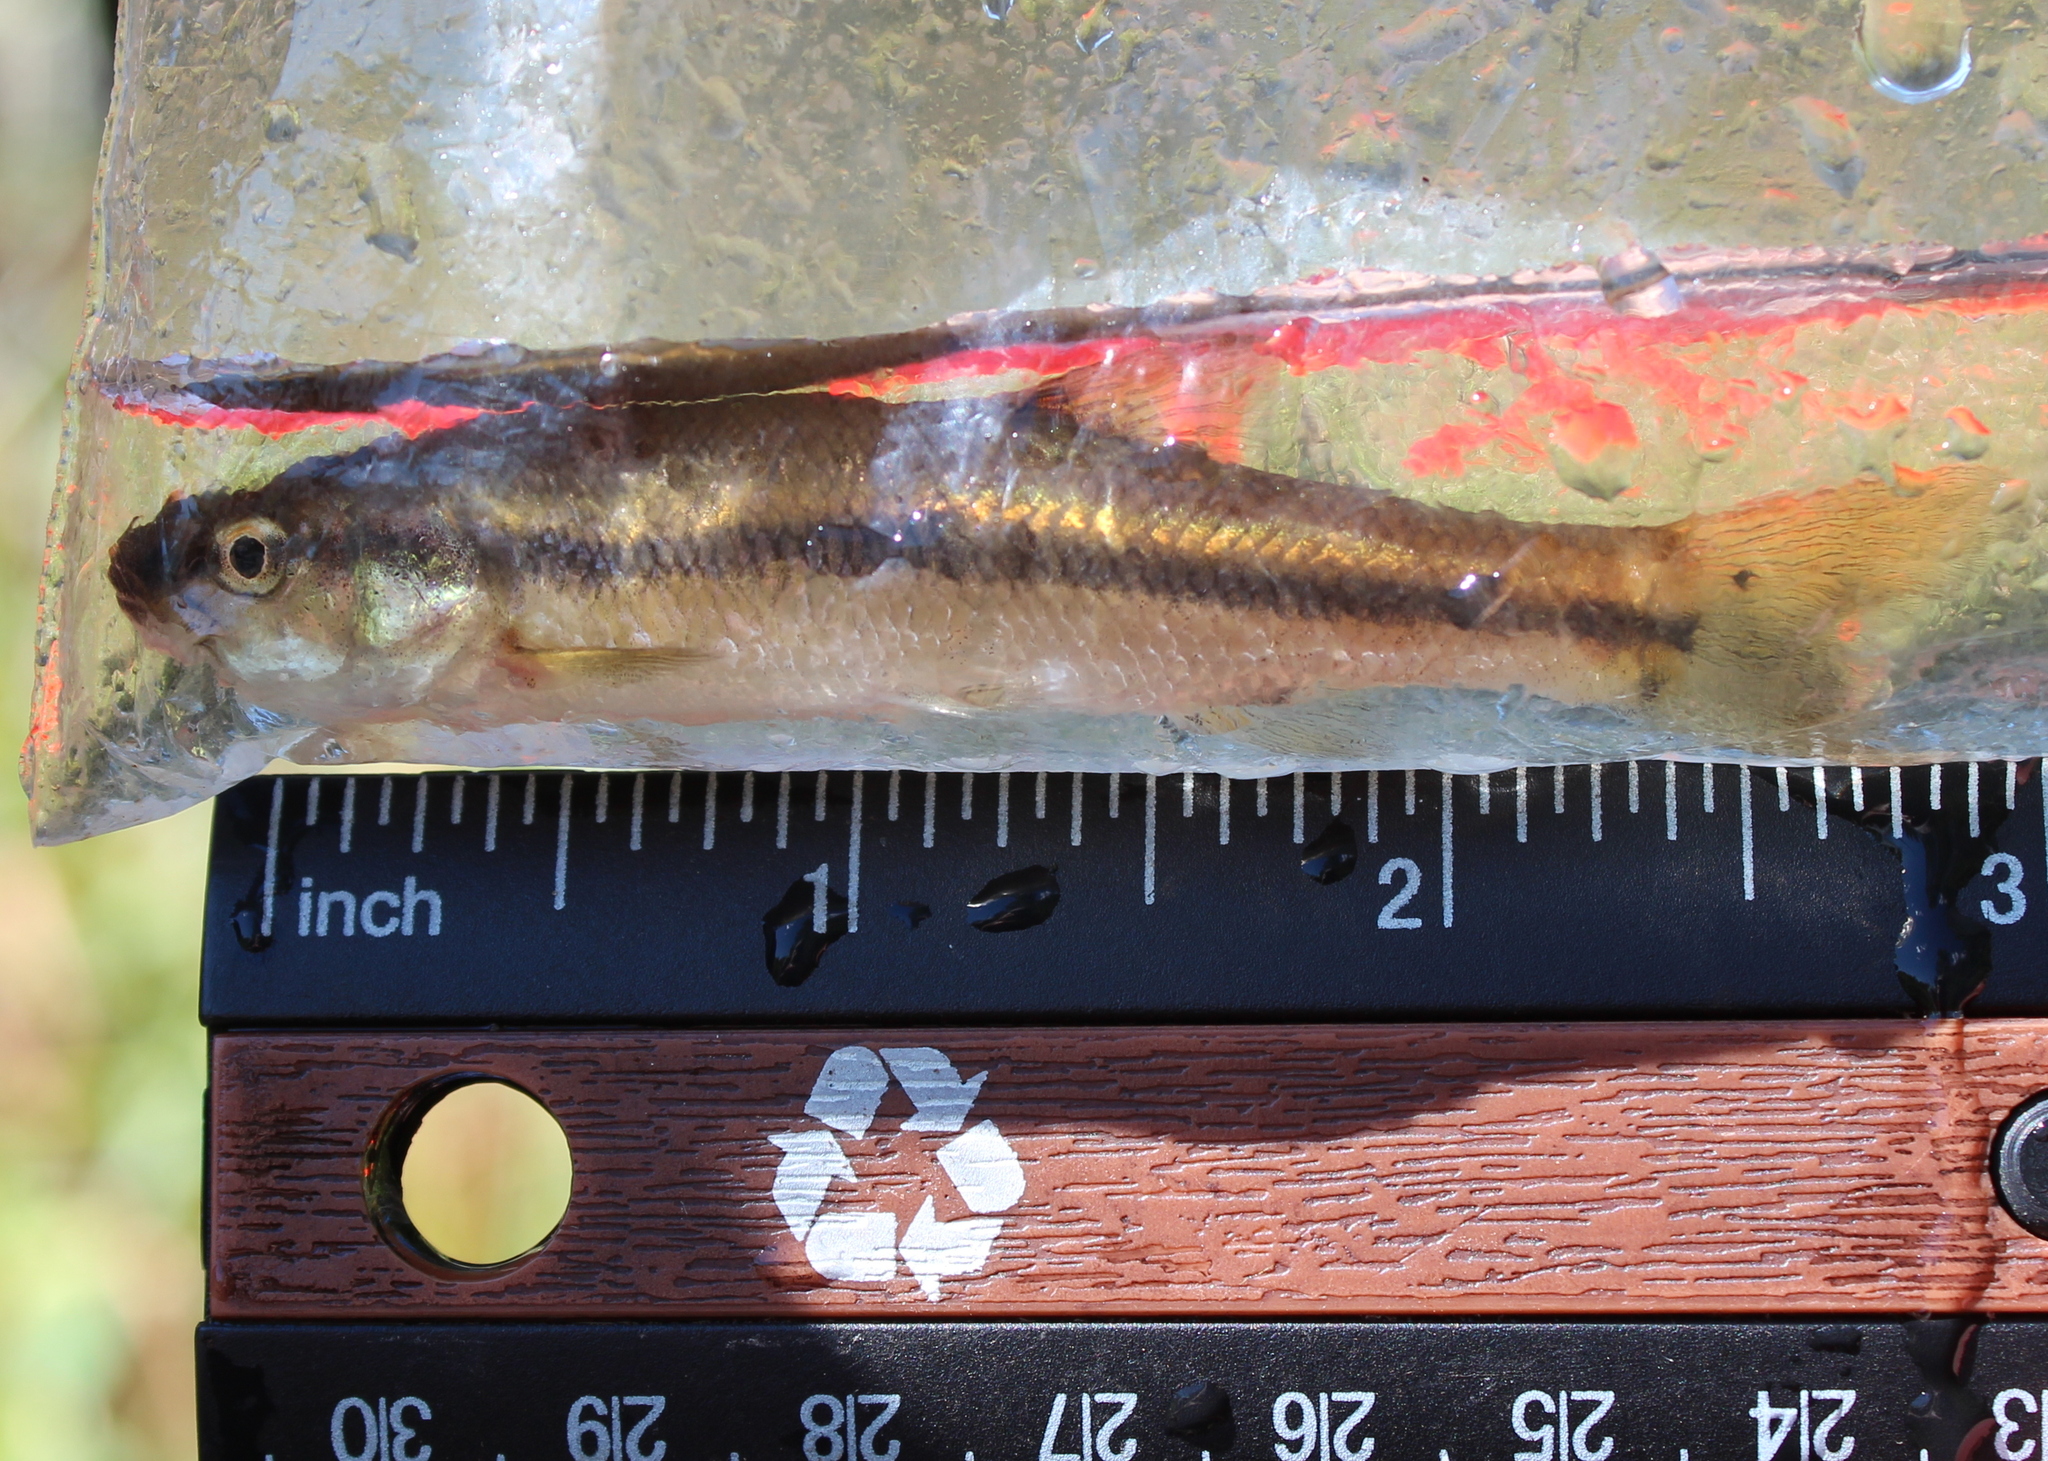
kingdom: Animalia
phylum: Chordata
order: Cypriniformes
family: Cyprinidae
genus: Semotilus
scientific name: Semotilus atromaculatus
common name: Creek chub
